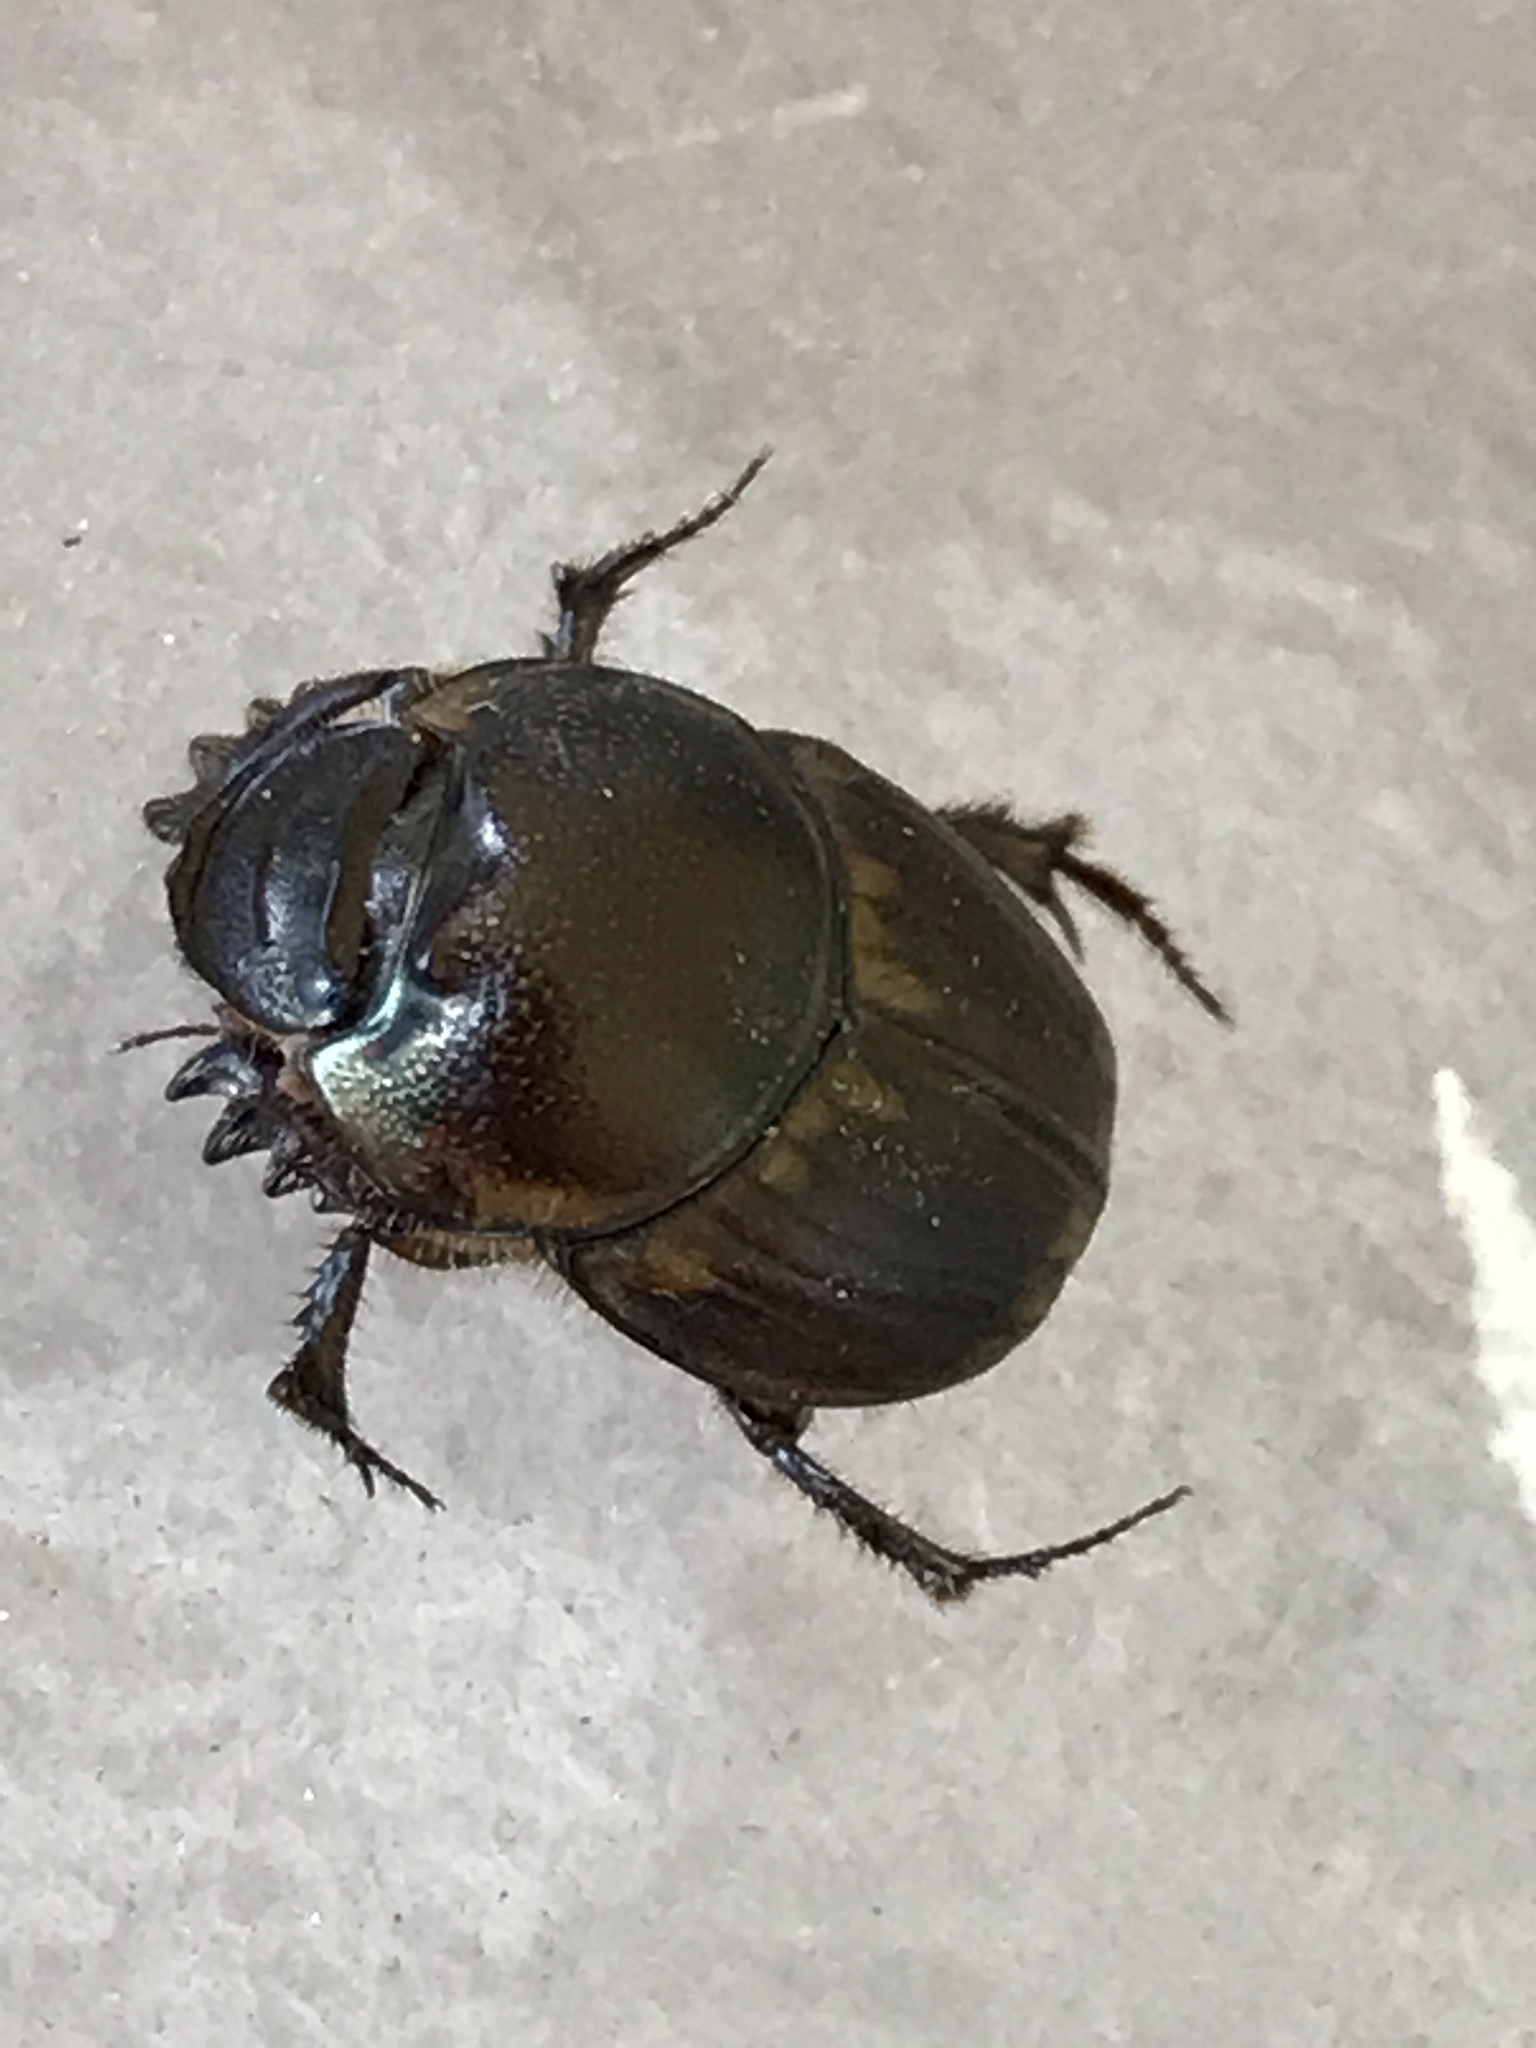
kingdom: Animalia
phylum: Arthropoda
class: Insecta
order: Coleoptera
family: Scarabaeidae
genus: Digitonthophagus
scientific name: Digitonthophagus gazella
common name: Brown dung beetle
